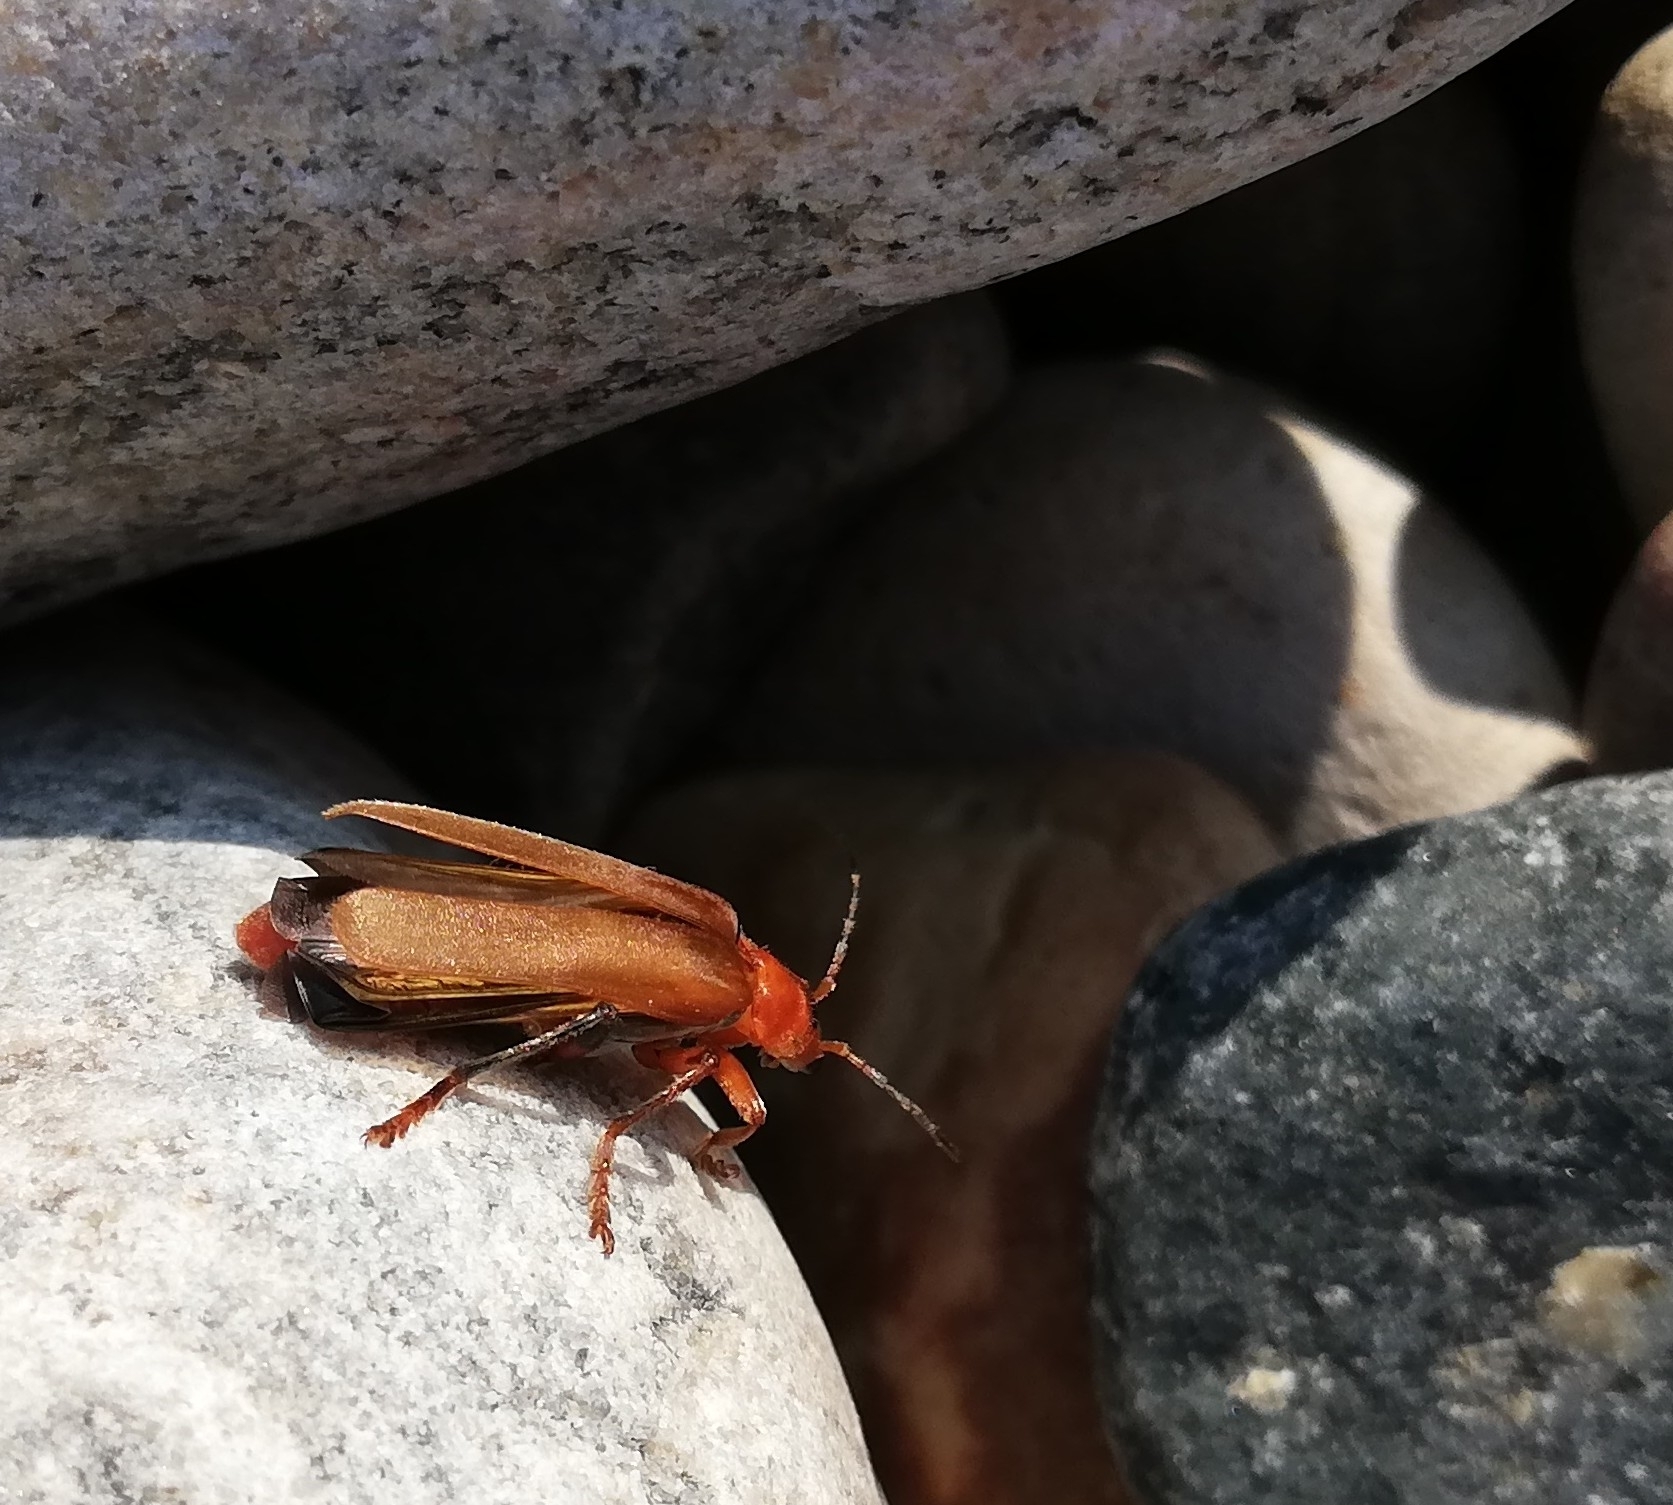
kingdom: Animalia
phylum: Arthropoda
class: Insecta
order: Coleoptera
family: Cantharidae
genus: Cantharis
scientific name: Cantharis livida
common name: Livid soldier beetle
